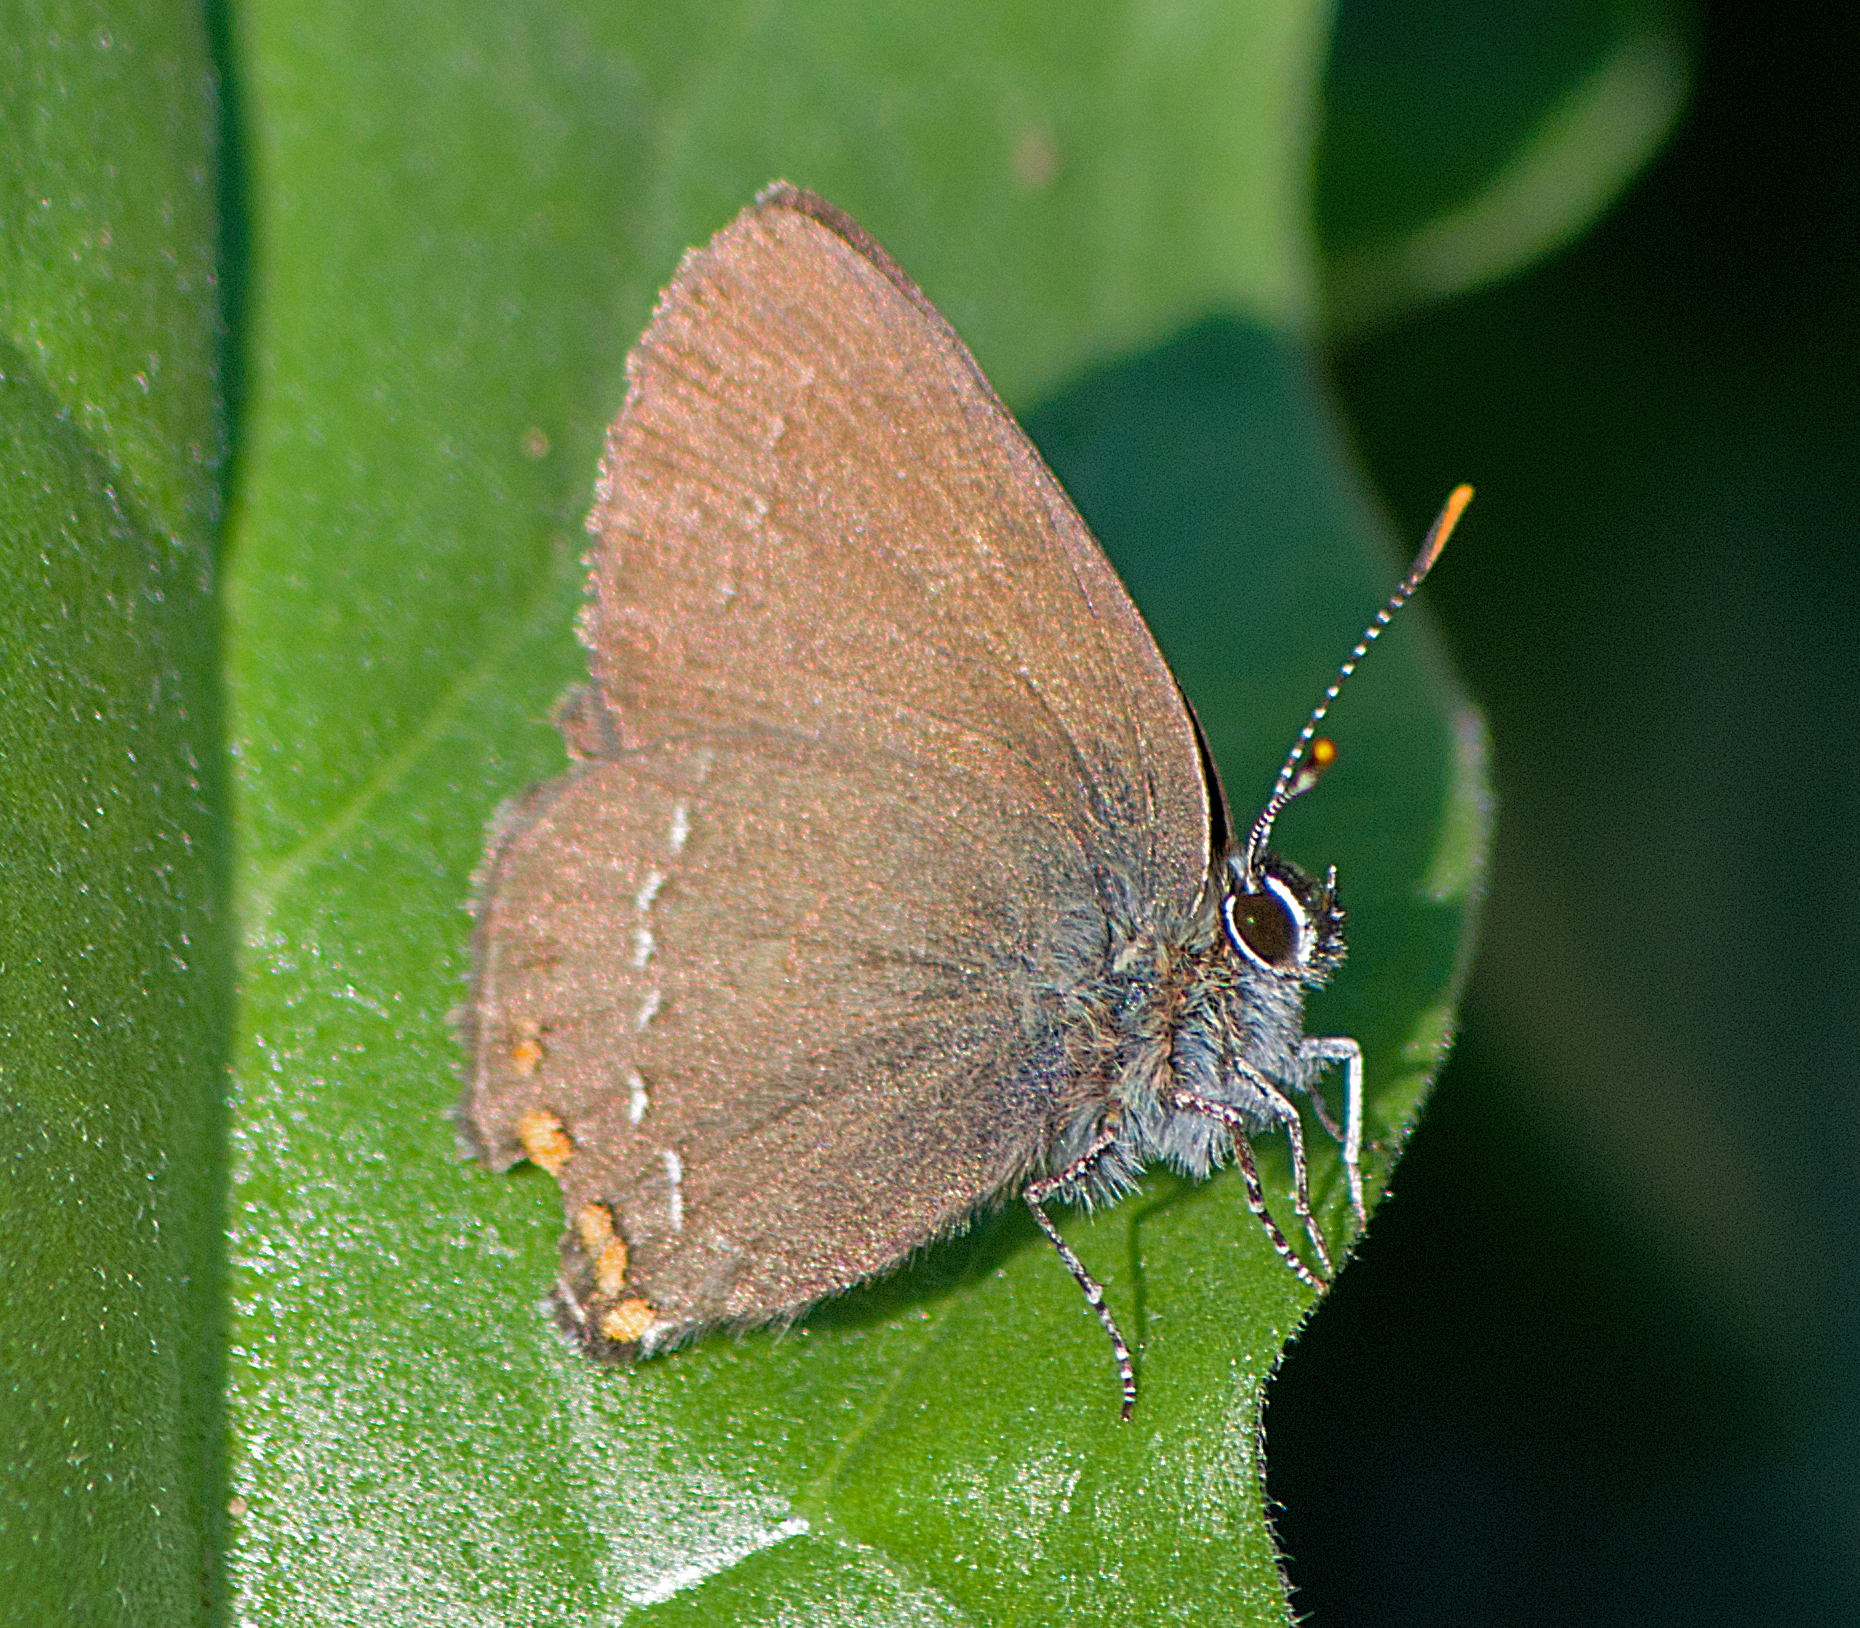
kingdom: Animalia
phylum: Arthropoda
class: Insecta
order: Lepidoptera
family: Lycaenidae
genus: Nordmannia
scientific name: Nordmannia ilicis
